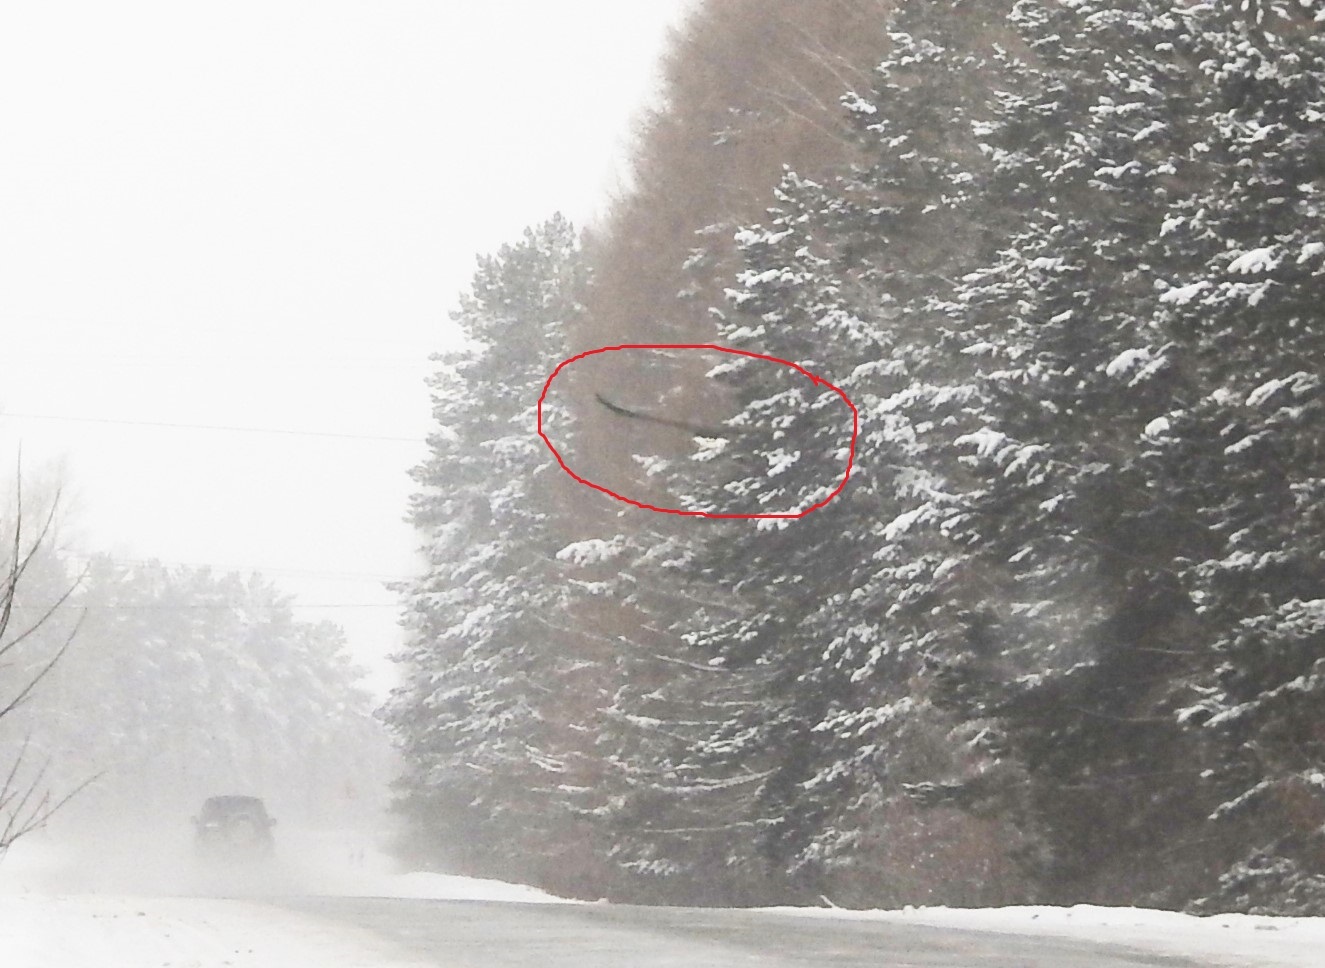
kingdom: Animalia
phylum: Chordata
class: Aves
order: Accipitriformes
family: Accipitridae
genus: Haliaeetus
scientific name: Haliaeetus albicilla
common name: White-tailed eagle
